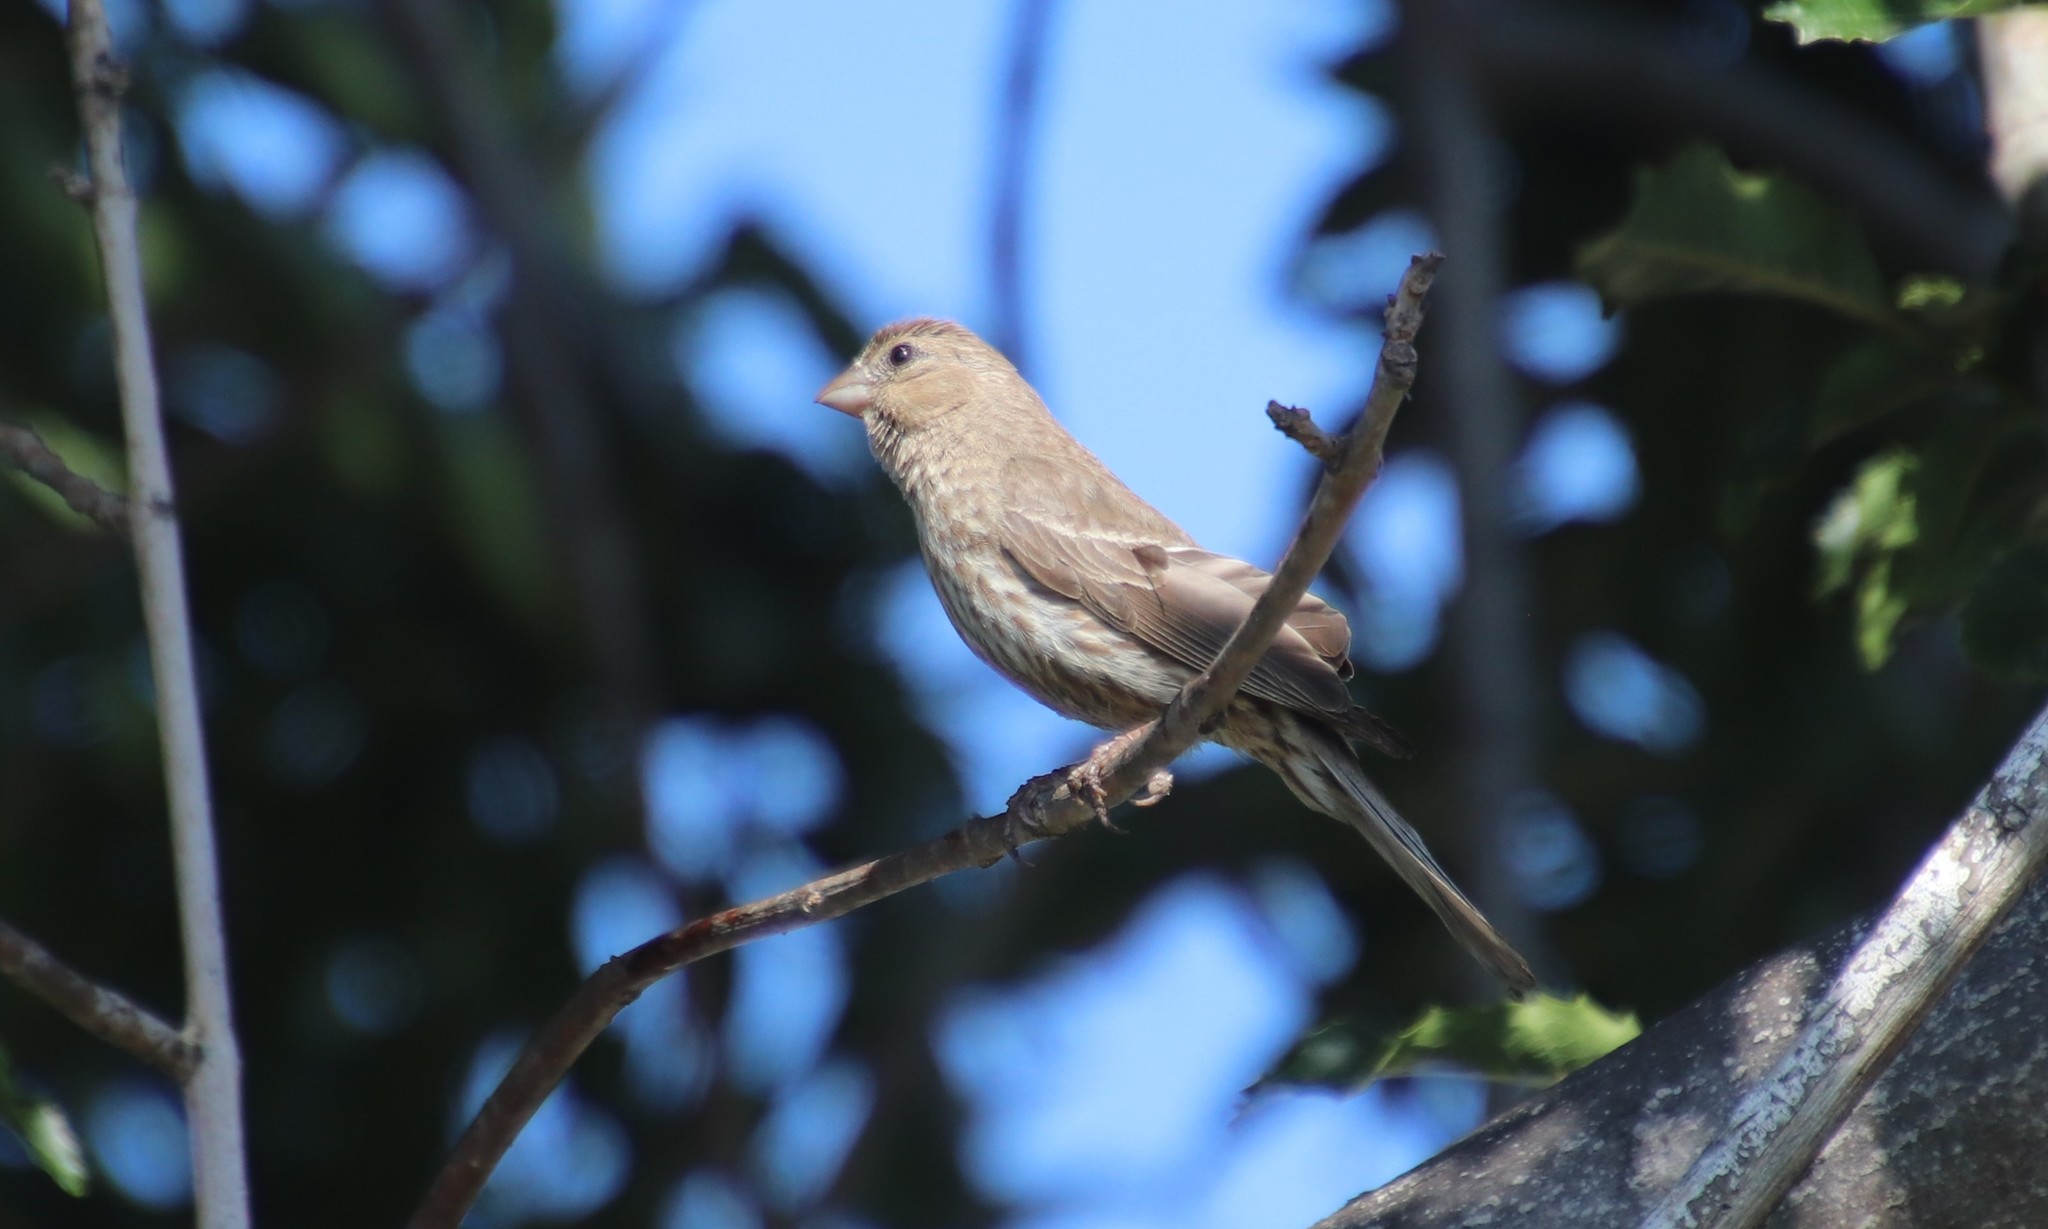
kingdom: Animalia
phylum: Chordata
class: Aves
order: Passeriformes
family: Fringillidae
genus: Haemorhous
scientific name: Haemorhous mexicanus
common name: House finch
